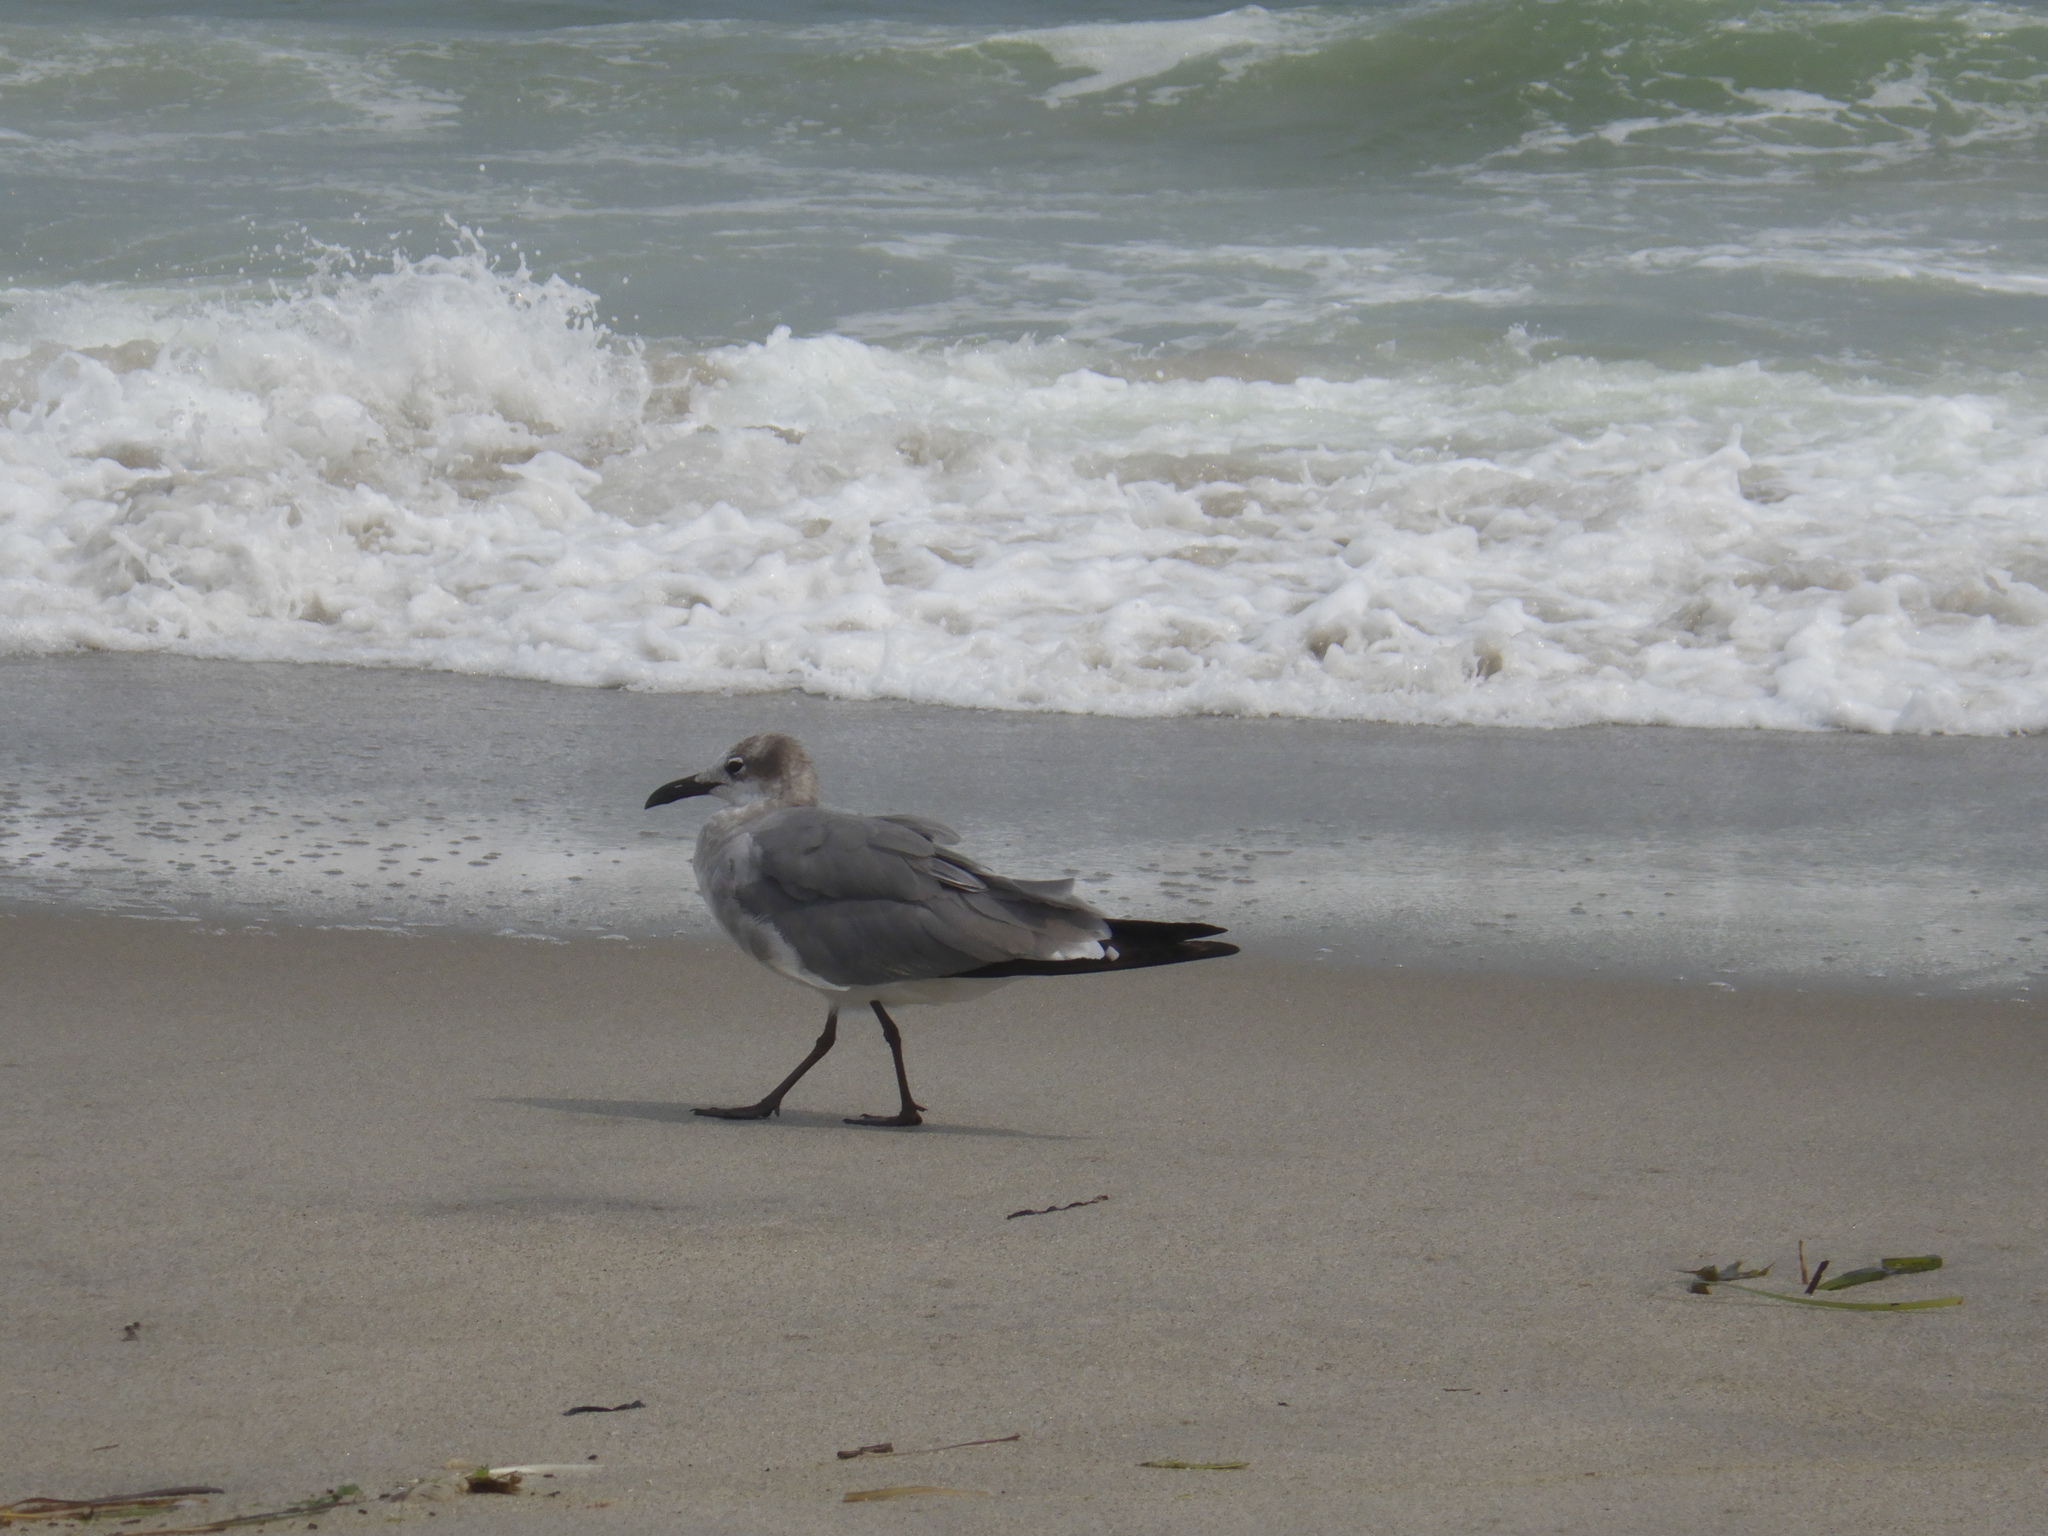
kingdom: Animalia
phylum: Chordata
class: Aves
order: Charadriiformes
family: Laridae
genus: Leucophaeus
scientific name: Leucophaeus atricilla
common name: Laughing gull
